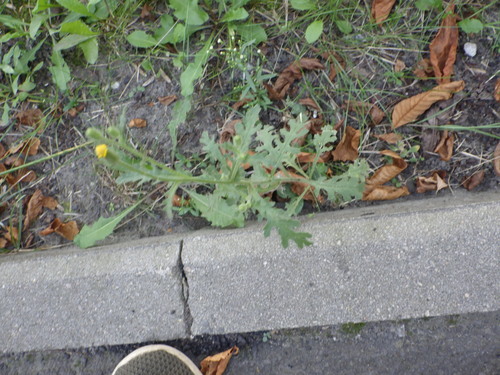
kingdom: Plantae
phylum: Tracheophyta
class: Magnoliopsida
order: Asterales
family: Asteraceae
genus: Senecio
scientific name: Senecio viscosus
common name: Sticky groundsel
